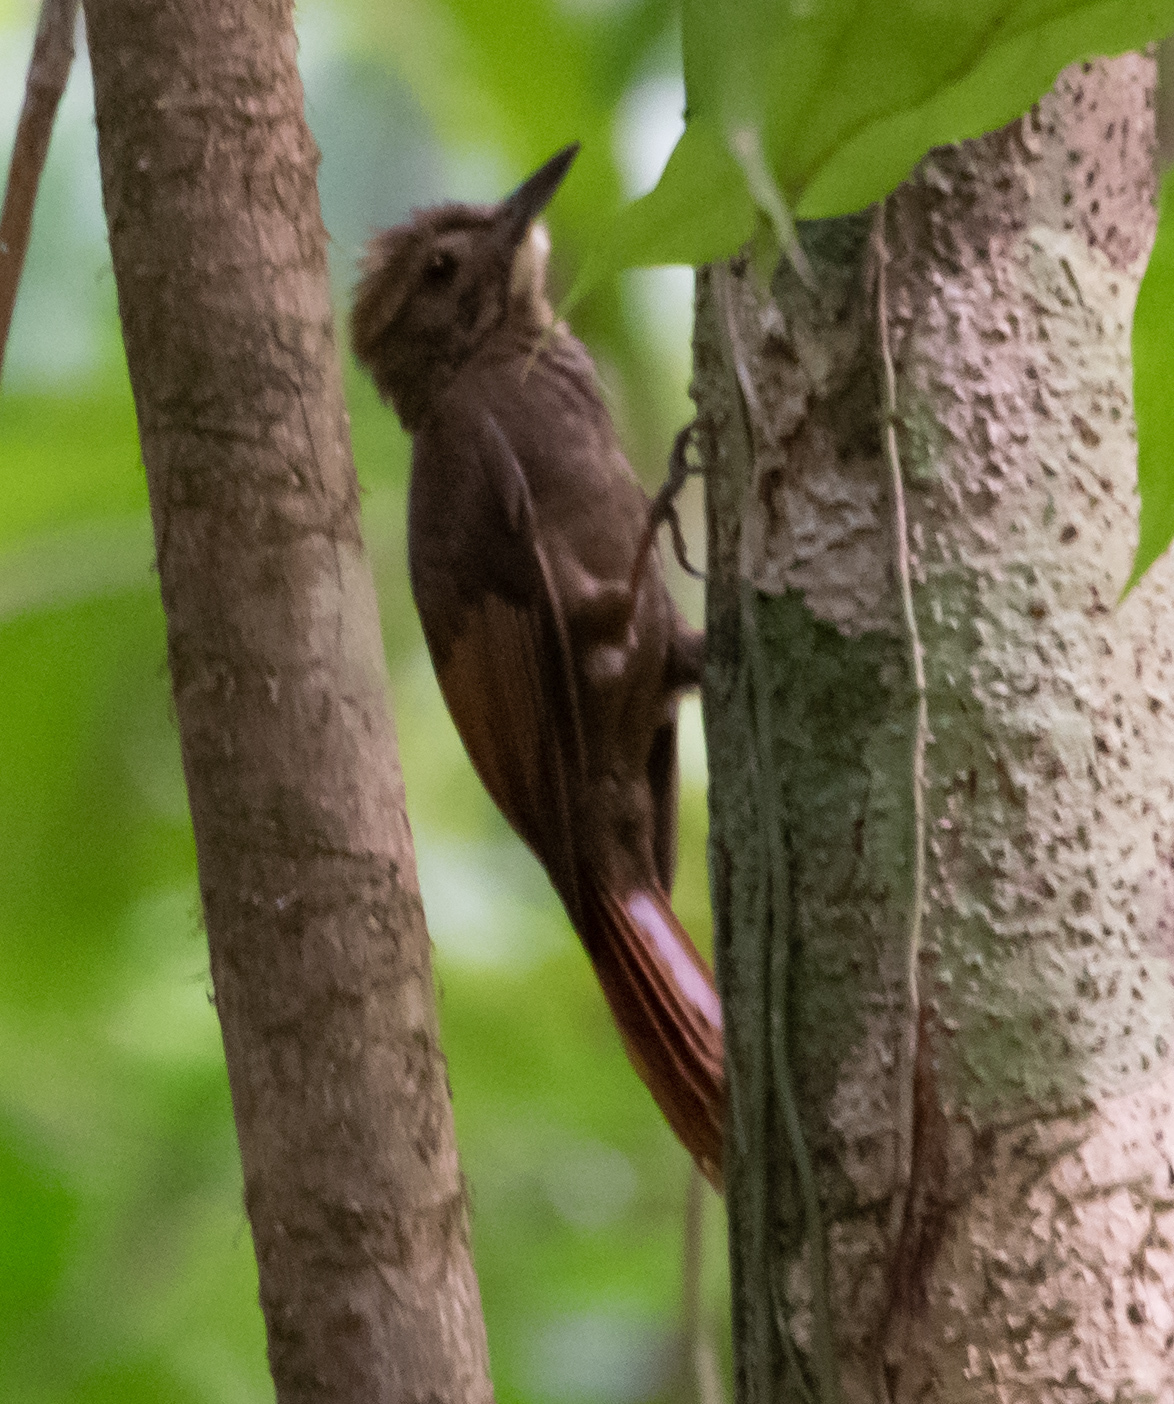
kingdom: Animalia
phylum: Chordata
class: Aves
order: Passeriformes
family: Furnariidae
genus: Dendrocincla
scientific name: Dendrocincla anabatina
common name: Tawny-winged woodcreeper
